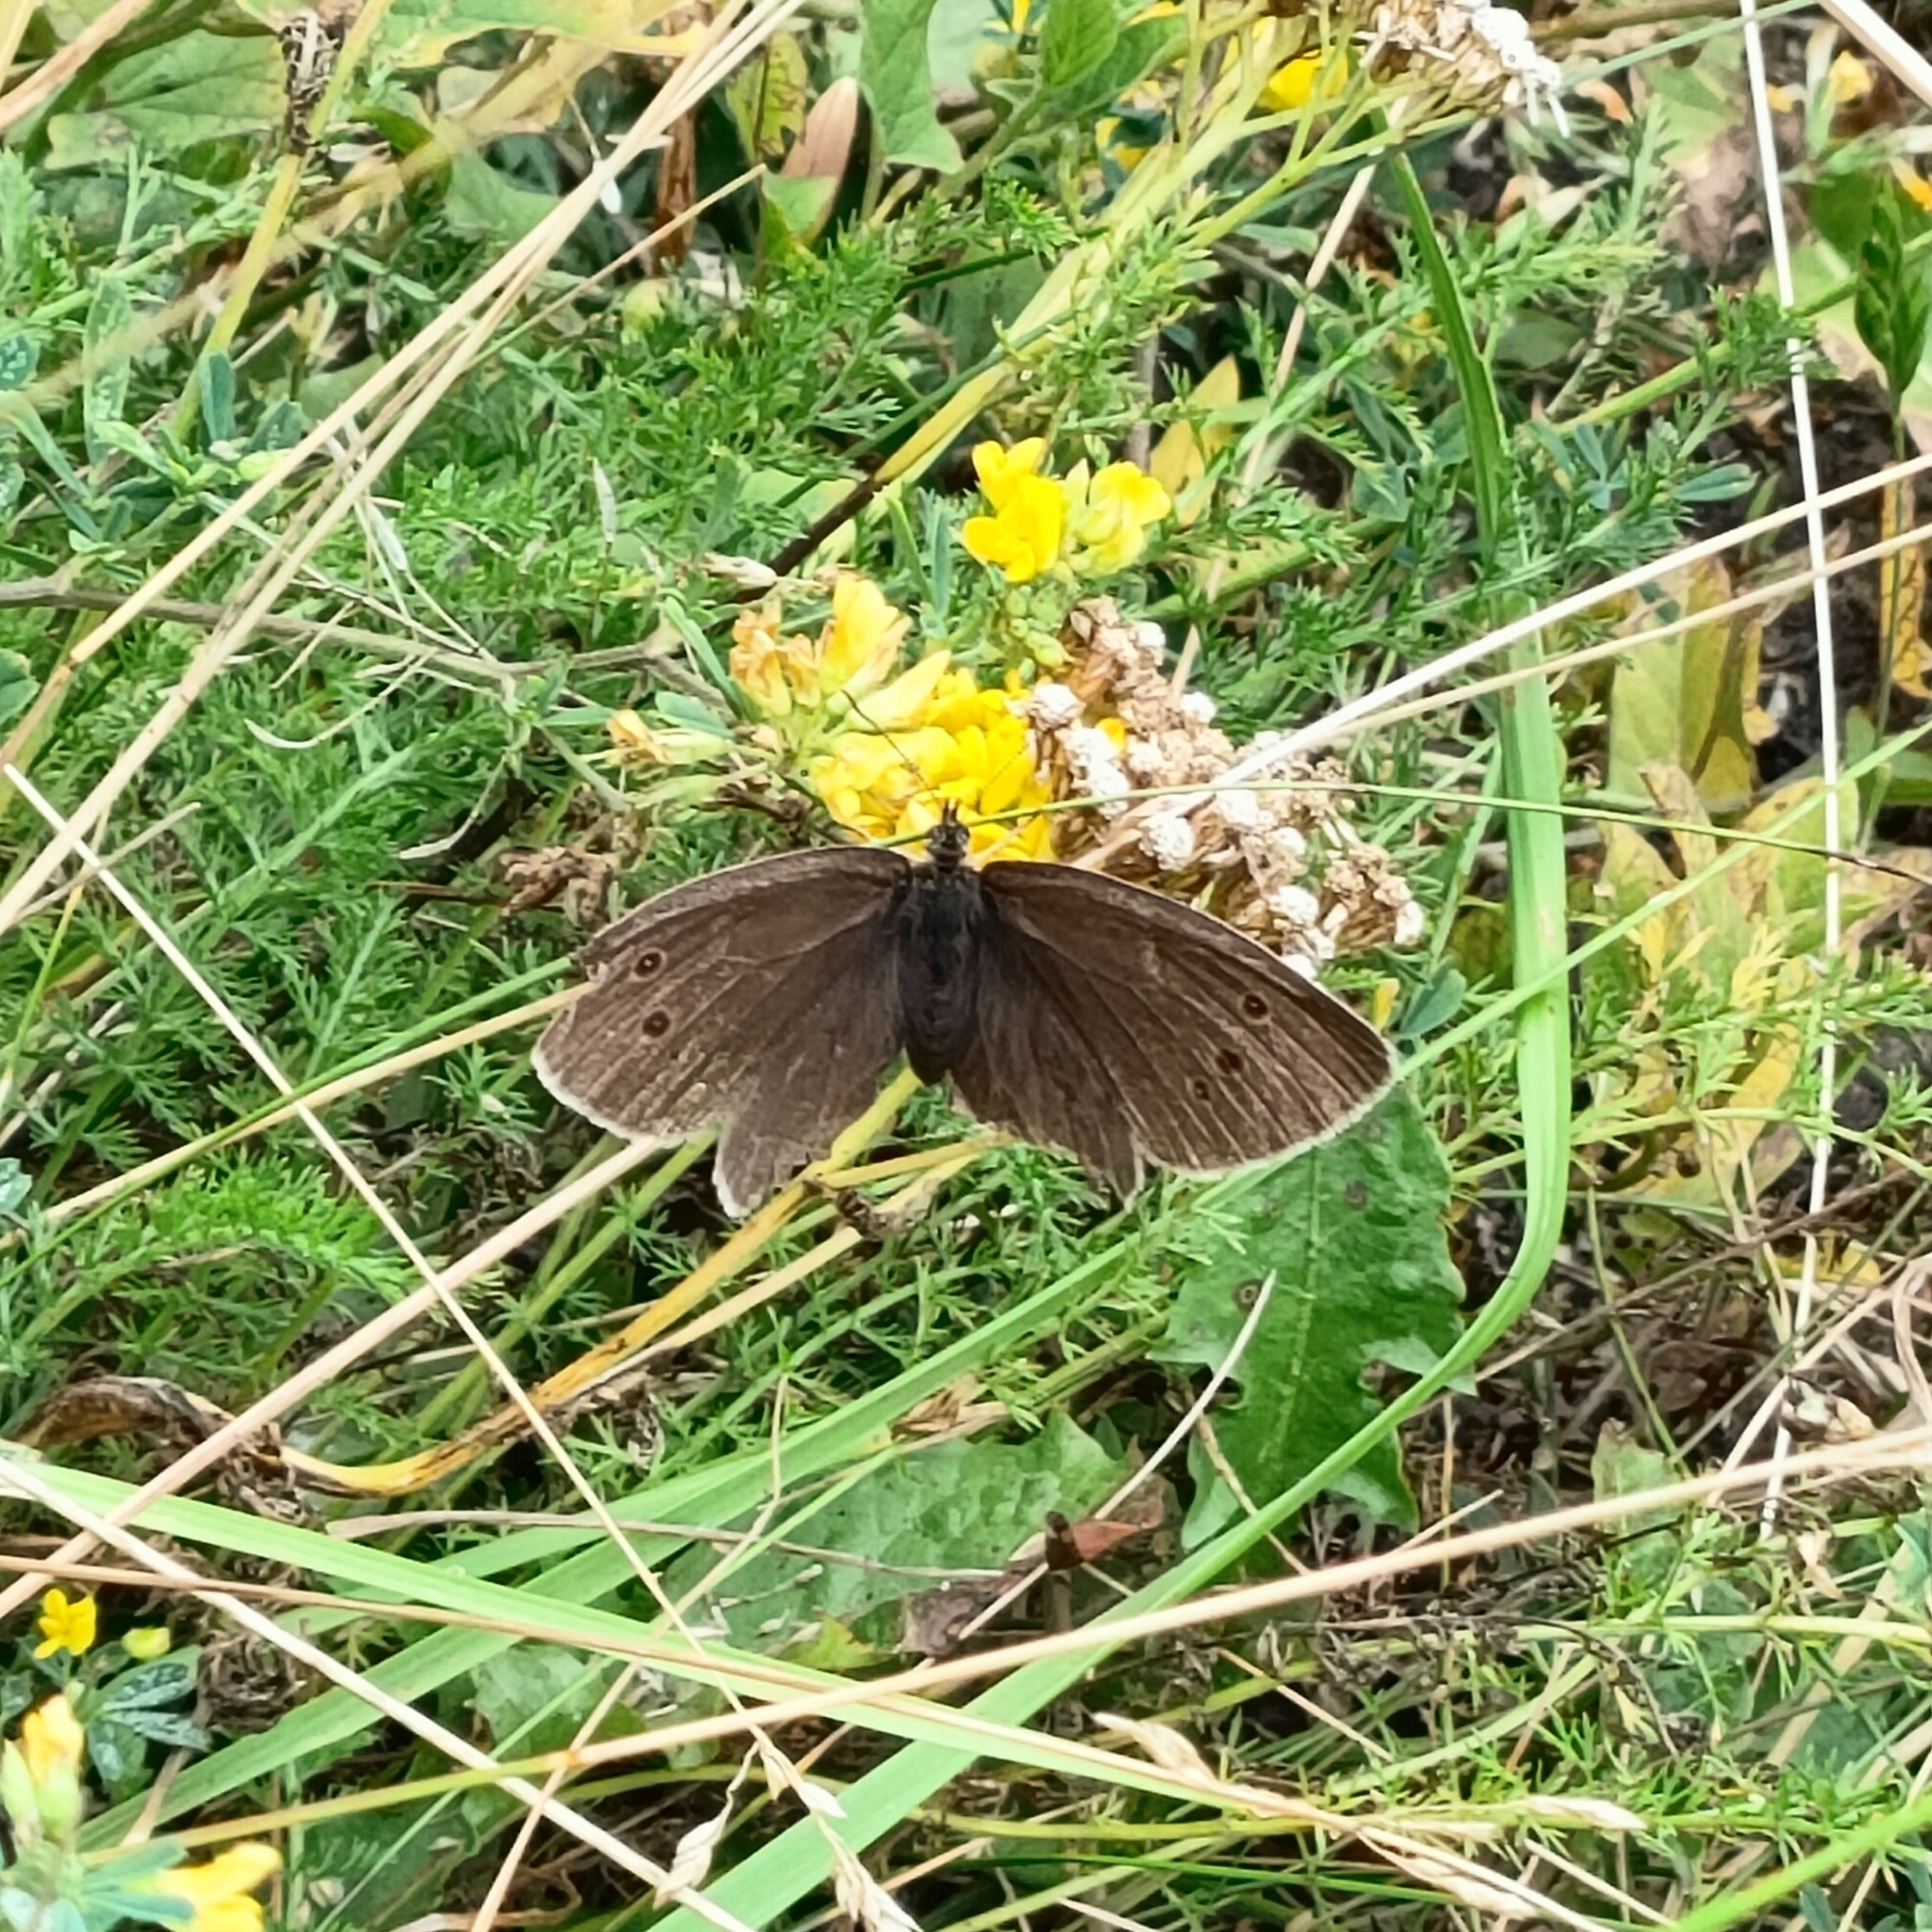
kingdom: Animalia
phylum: Arthropoda
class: Insecta
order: Lepidoptera
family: Nymphalidae
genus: Aphantopus
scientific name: Aphantopus hyperantus
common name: Ringlet
